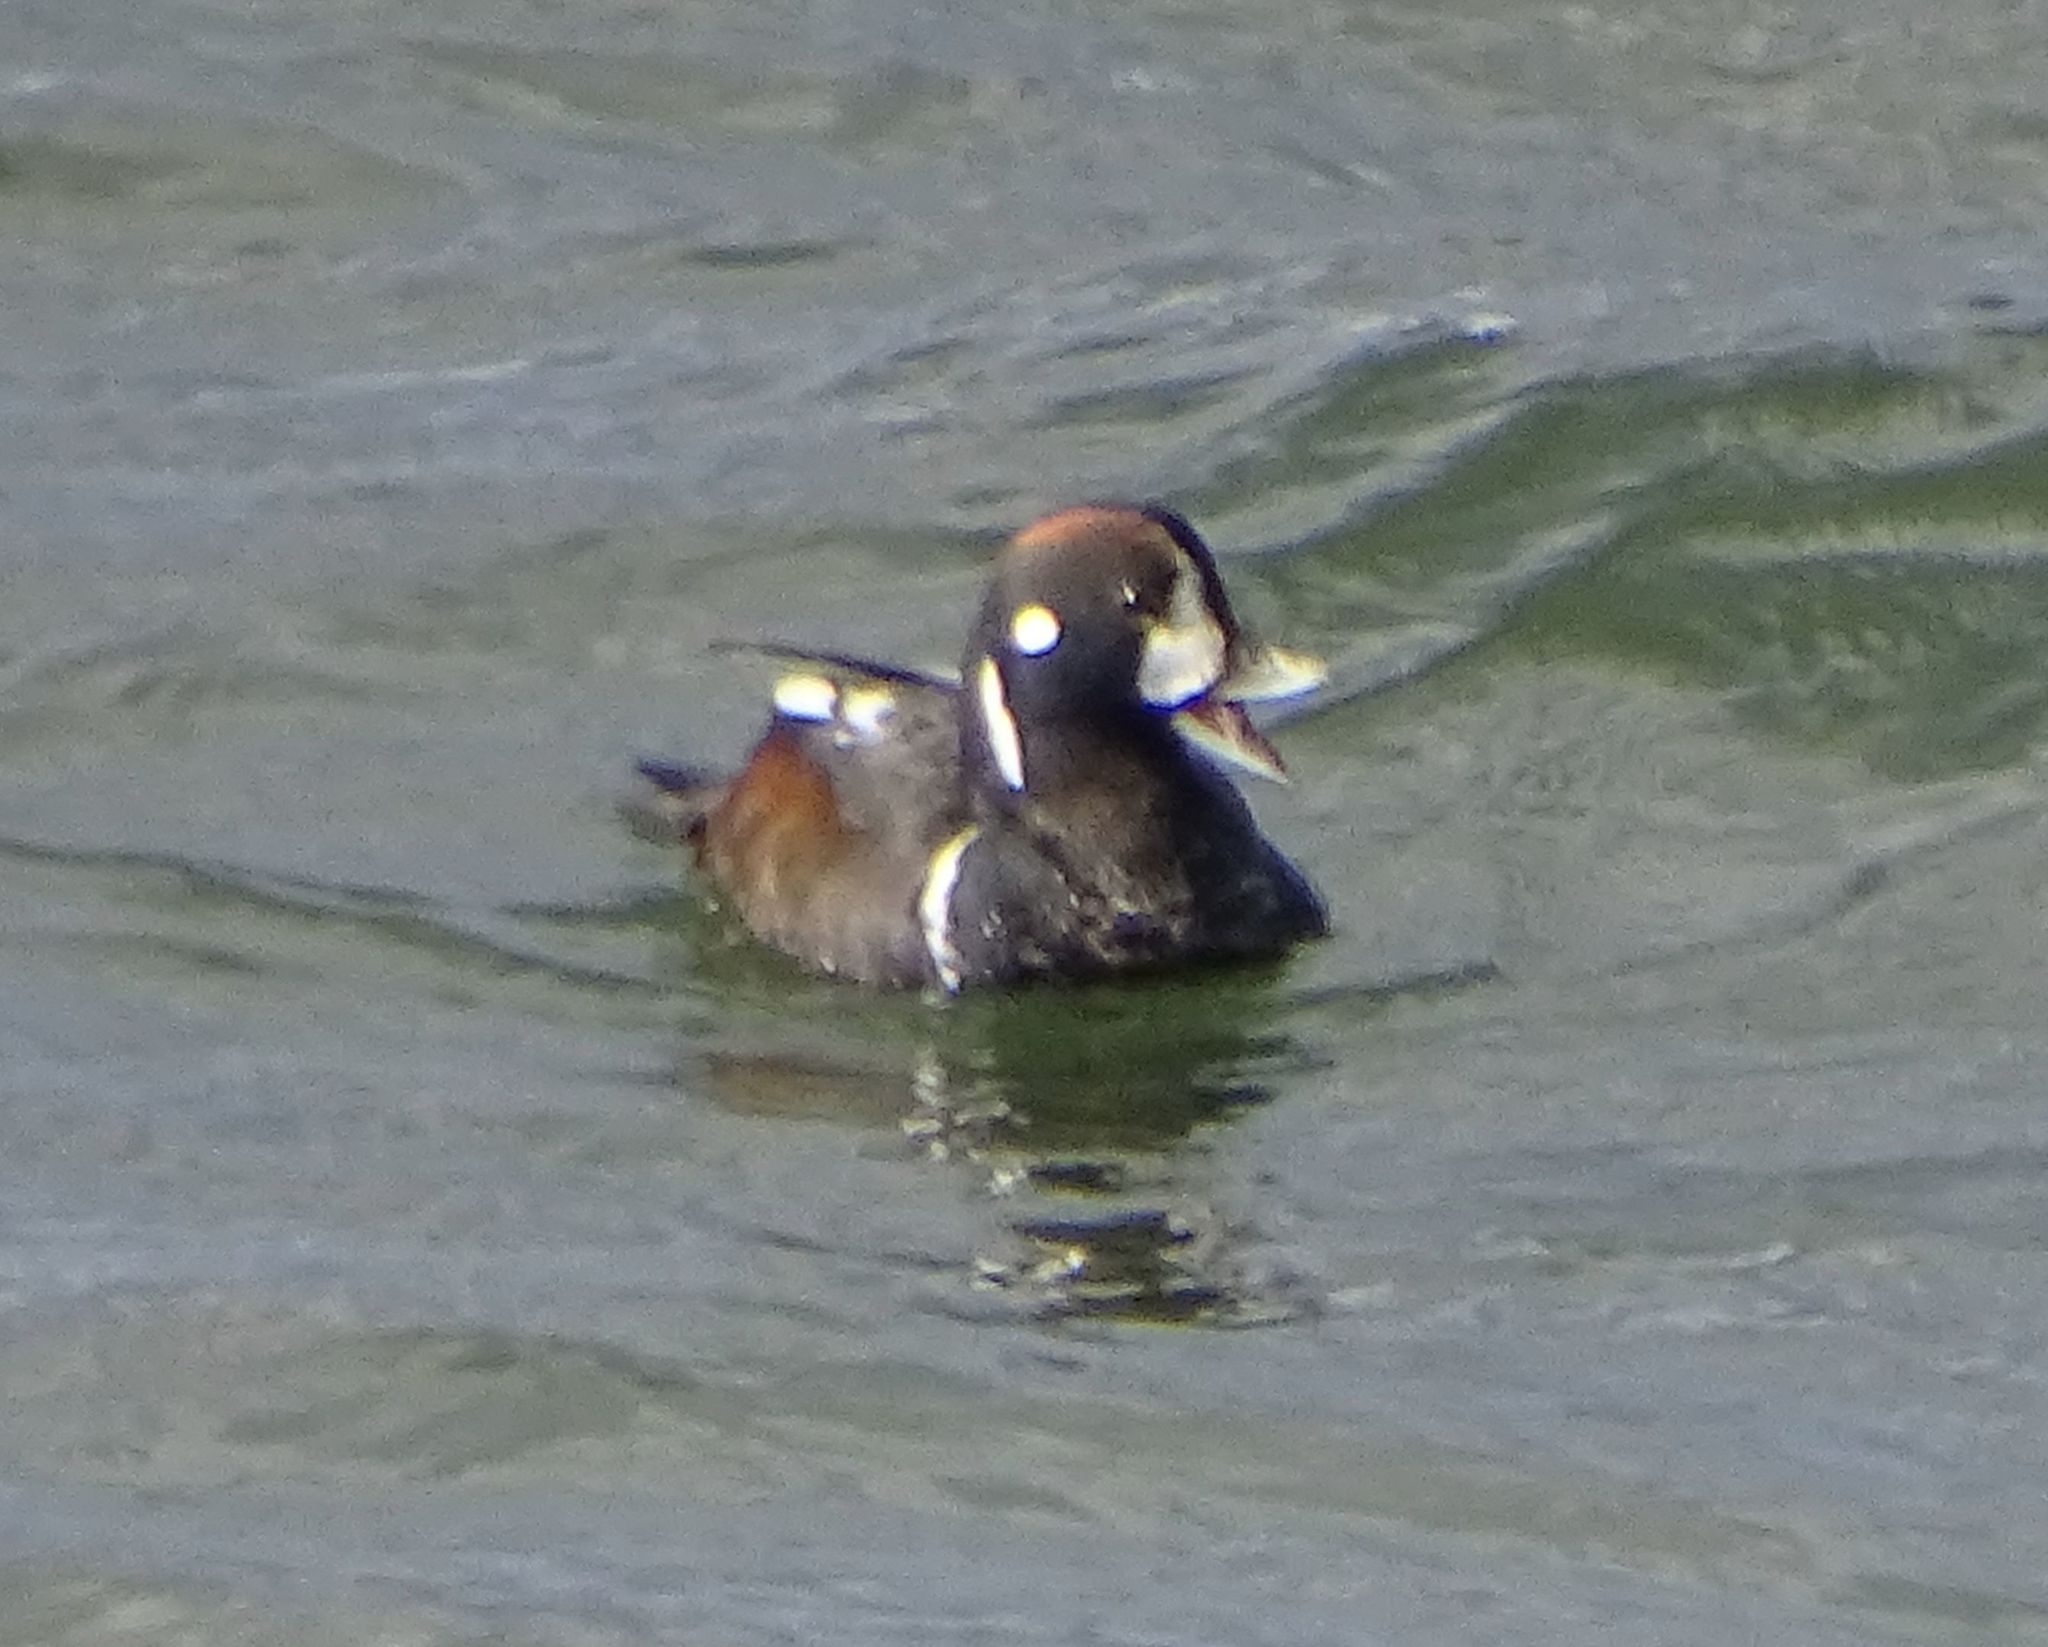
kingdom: Animalia
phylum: Chordata
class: Aves
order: Anseriformes
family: Anatidae
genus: Histrionicus
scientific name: Histrionicus histrionicus
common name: Harlequin duck
